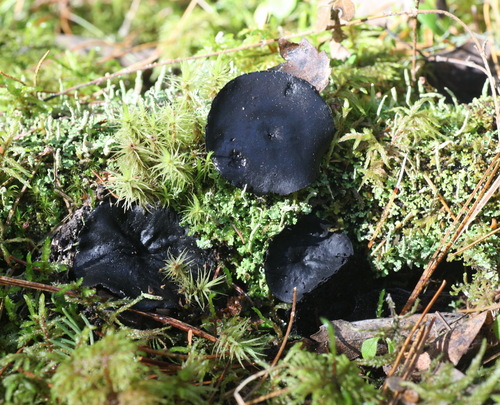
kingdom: Fungi
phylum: Ascomycota
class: Pezizomycetes
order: Pezizales
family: Sarcosomataceae
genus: Pseudoplectania
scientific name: Pseudoplectania melaena
